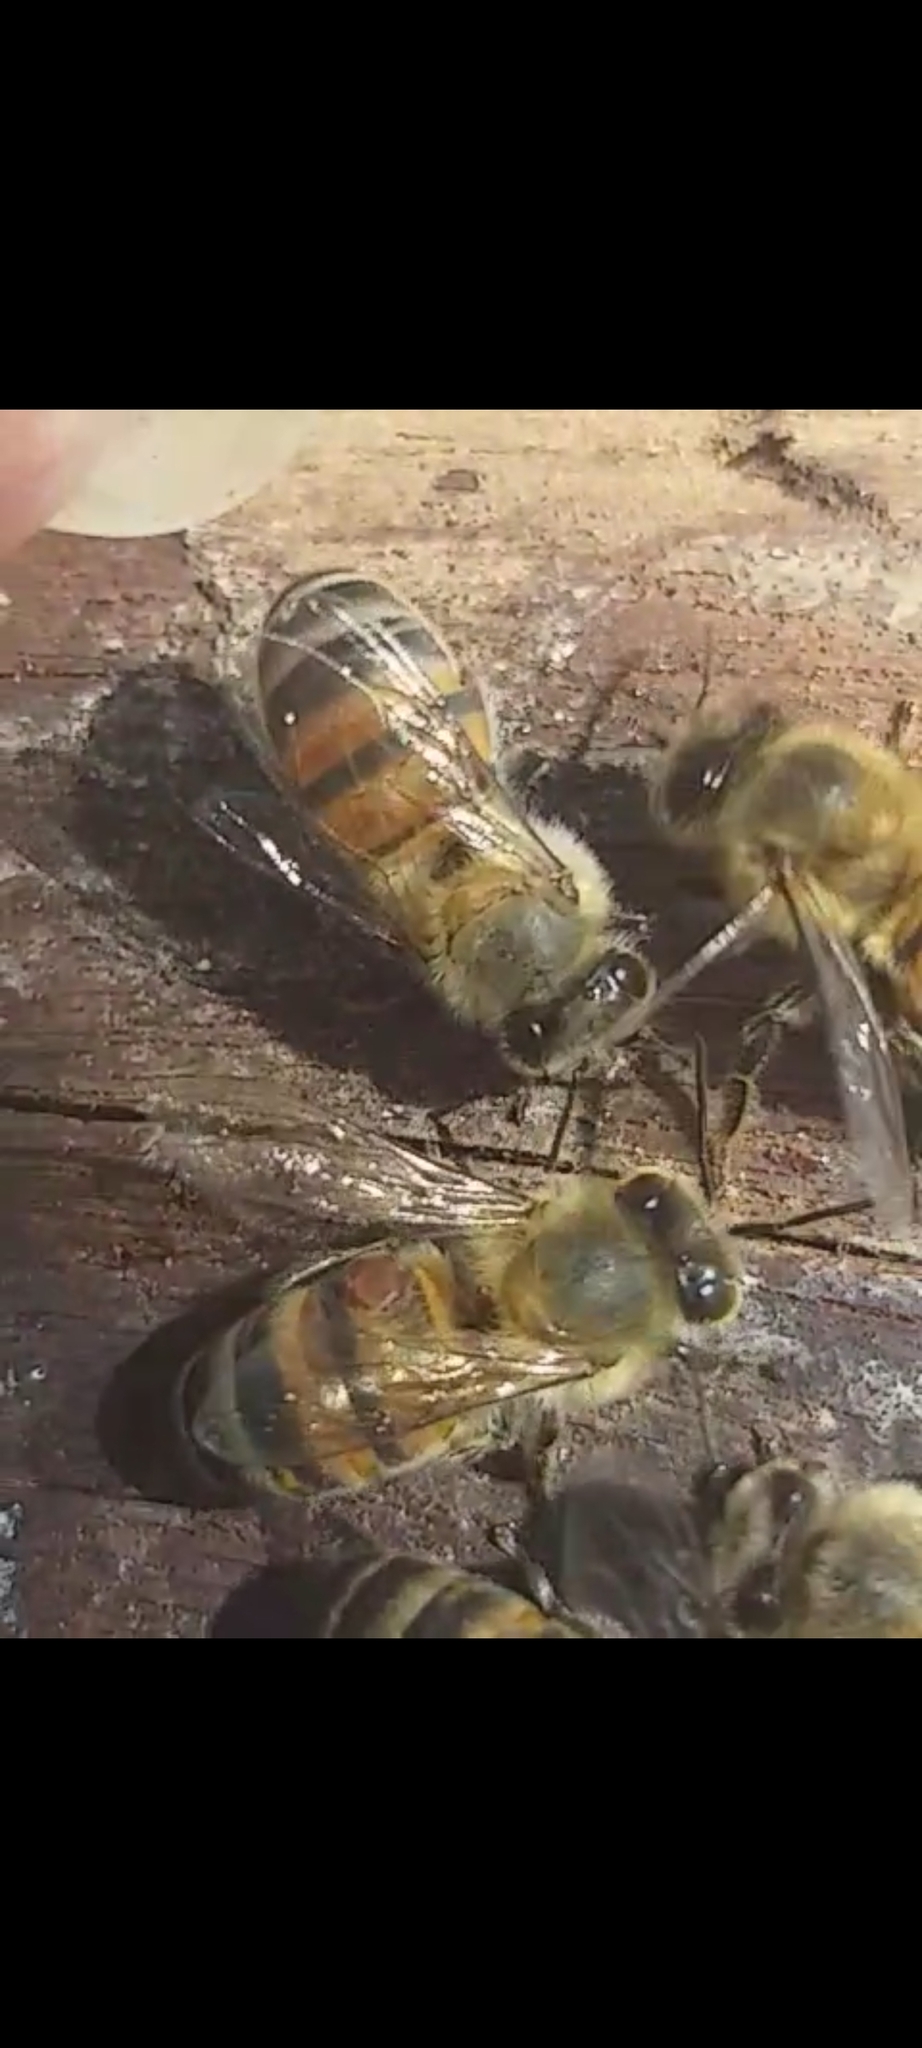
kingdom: Animalia
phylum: Arthropoda
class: Insecta
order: Hymenoptera
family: Apidae
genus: Apis
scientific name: Apis mellifera
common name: Honey bee
